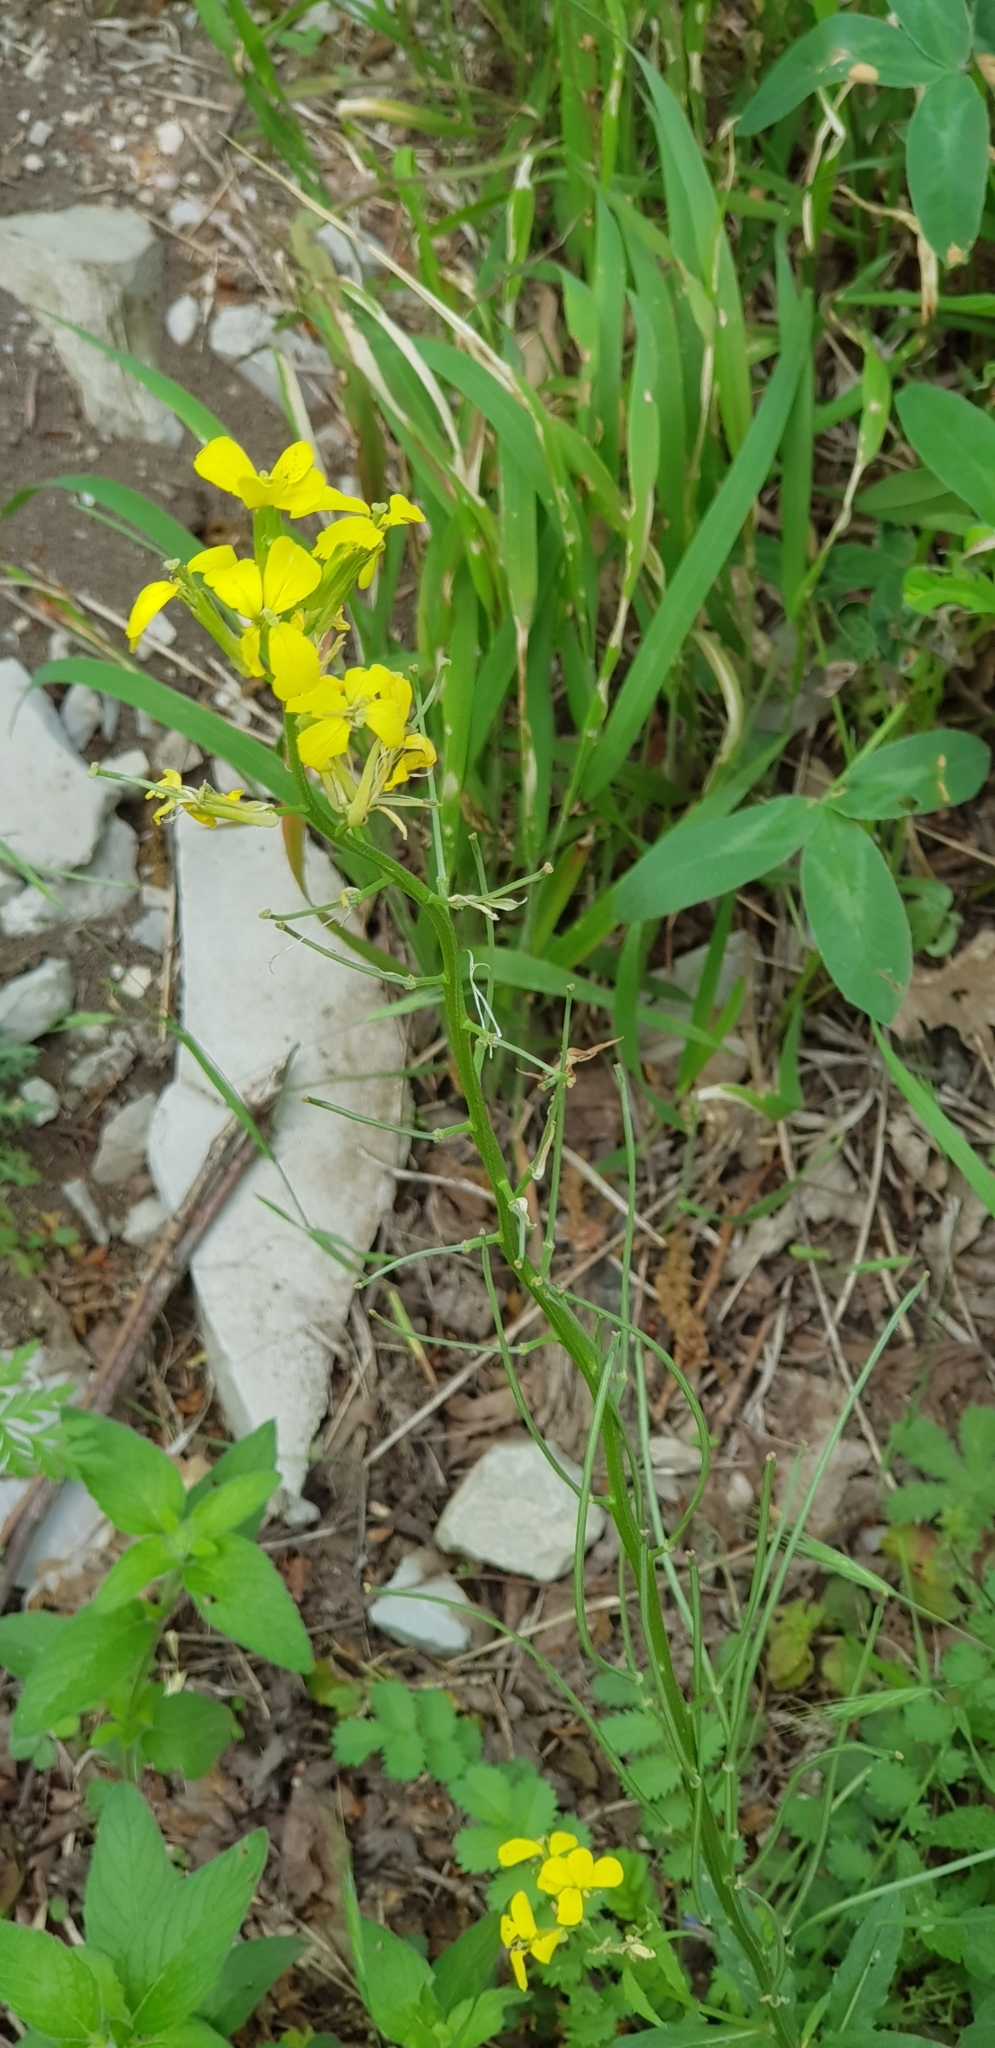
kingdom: Plantae
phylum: Tracheophyta
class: Magnoliopsida
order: Brassicales
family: Brassicaceae
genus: Erysimum
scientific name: Erysimum cuspidatum
